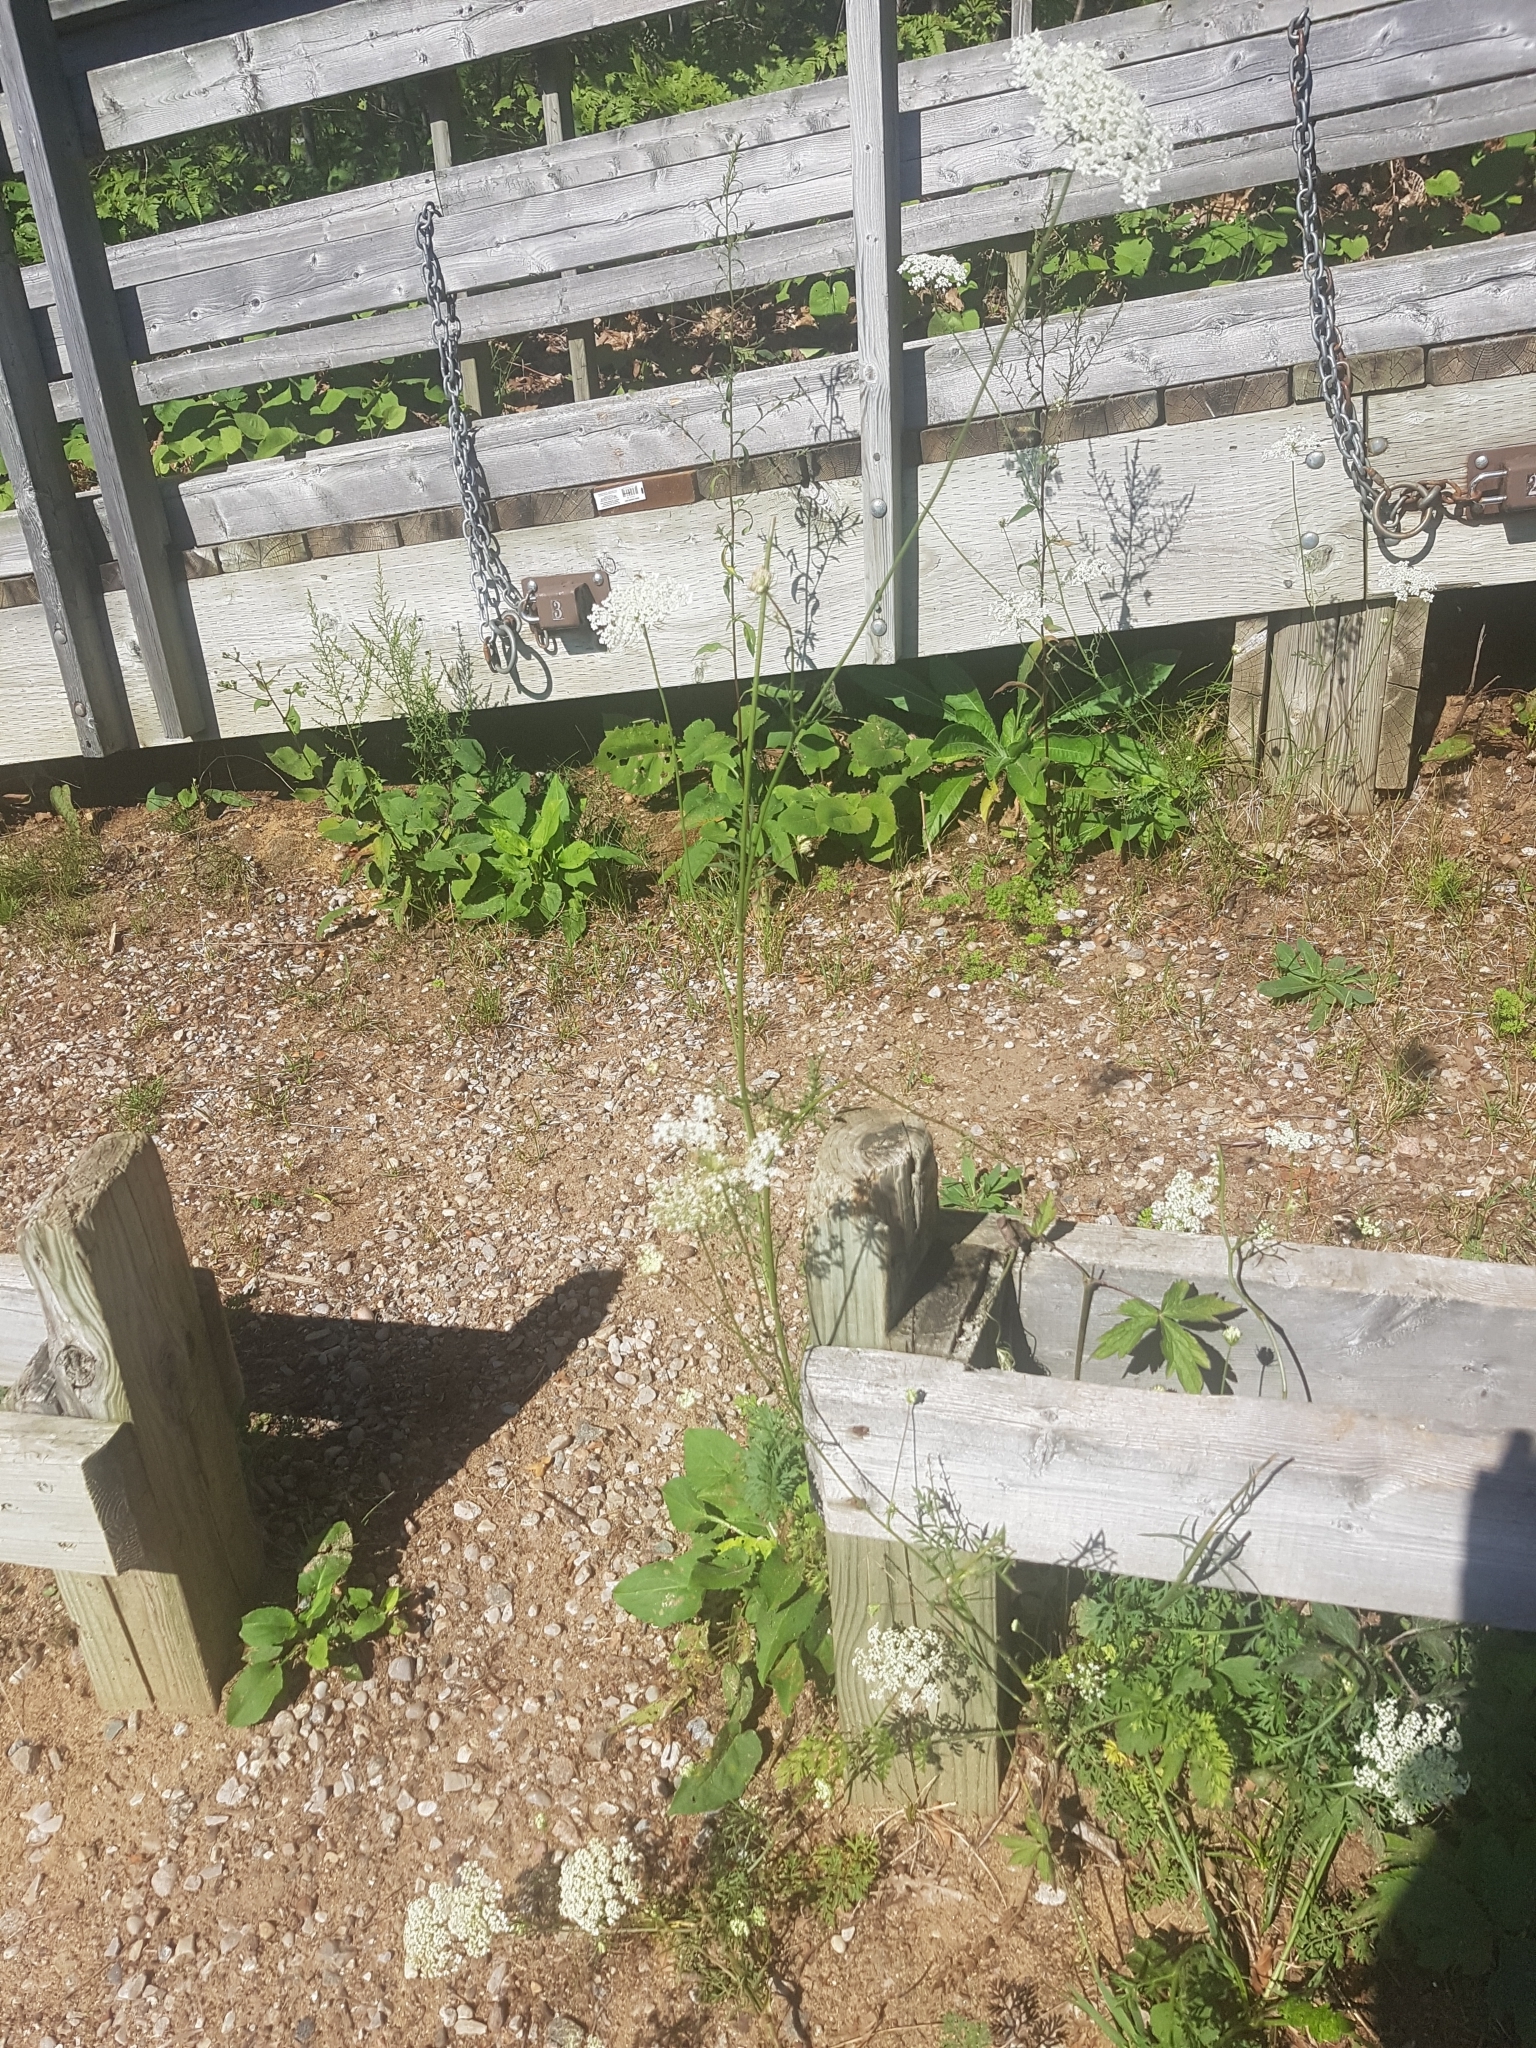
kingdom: Plantae
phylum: Tracheophyta
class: Magnoliopsida
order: Apiales
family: Apiaceae
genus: Daucus
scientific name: Daucus carota
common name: Wild carrot
